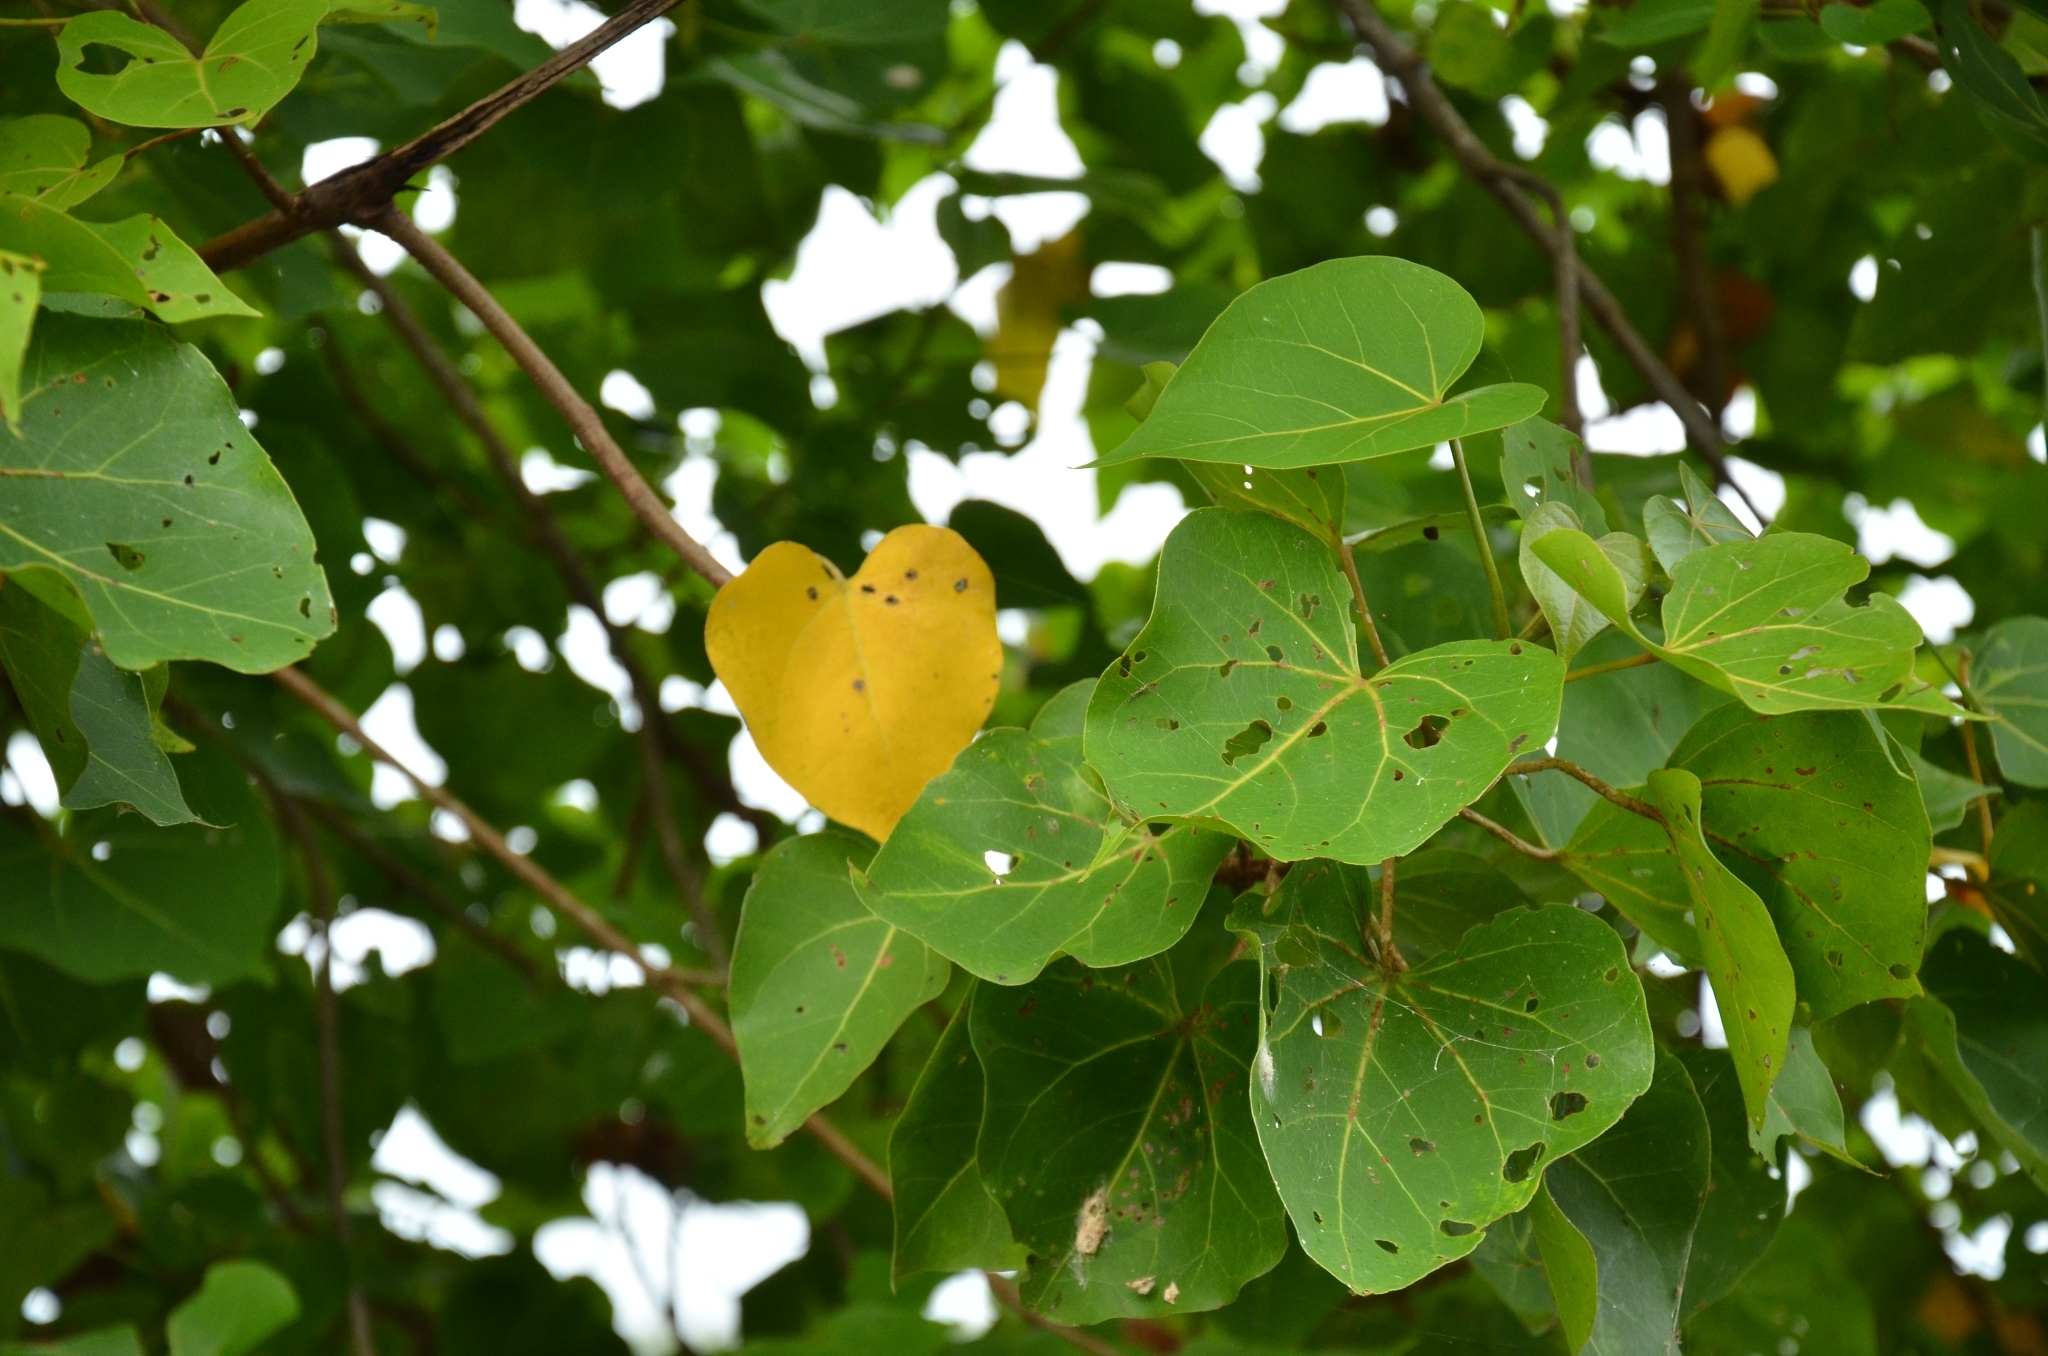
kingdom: Plantae
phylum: Tracheophyta
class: Magnoliopsida
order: Malvales
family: Malvaceae
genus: Thespesia
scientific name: Thespesia populnea
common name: Seaside mahoe
